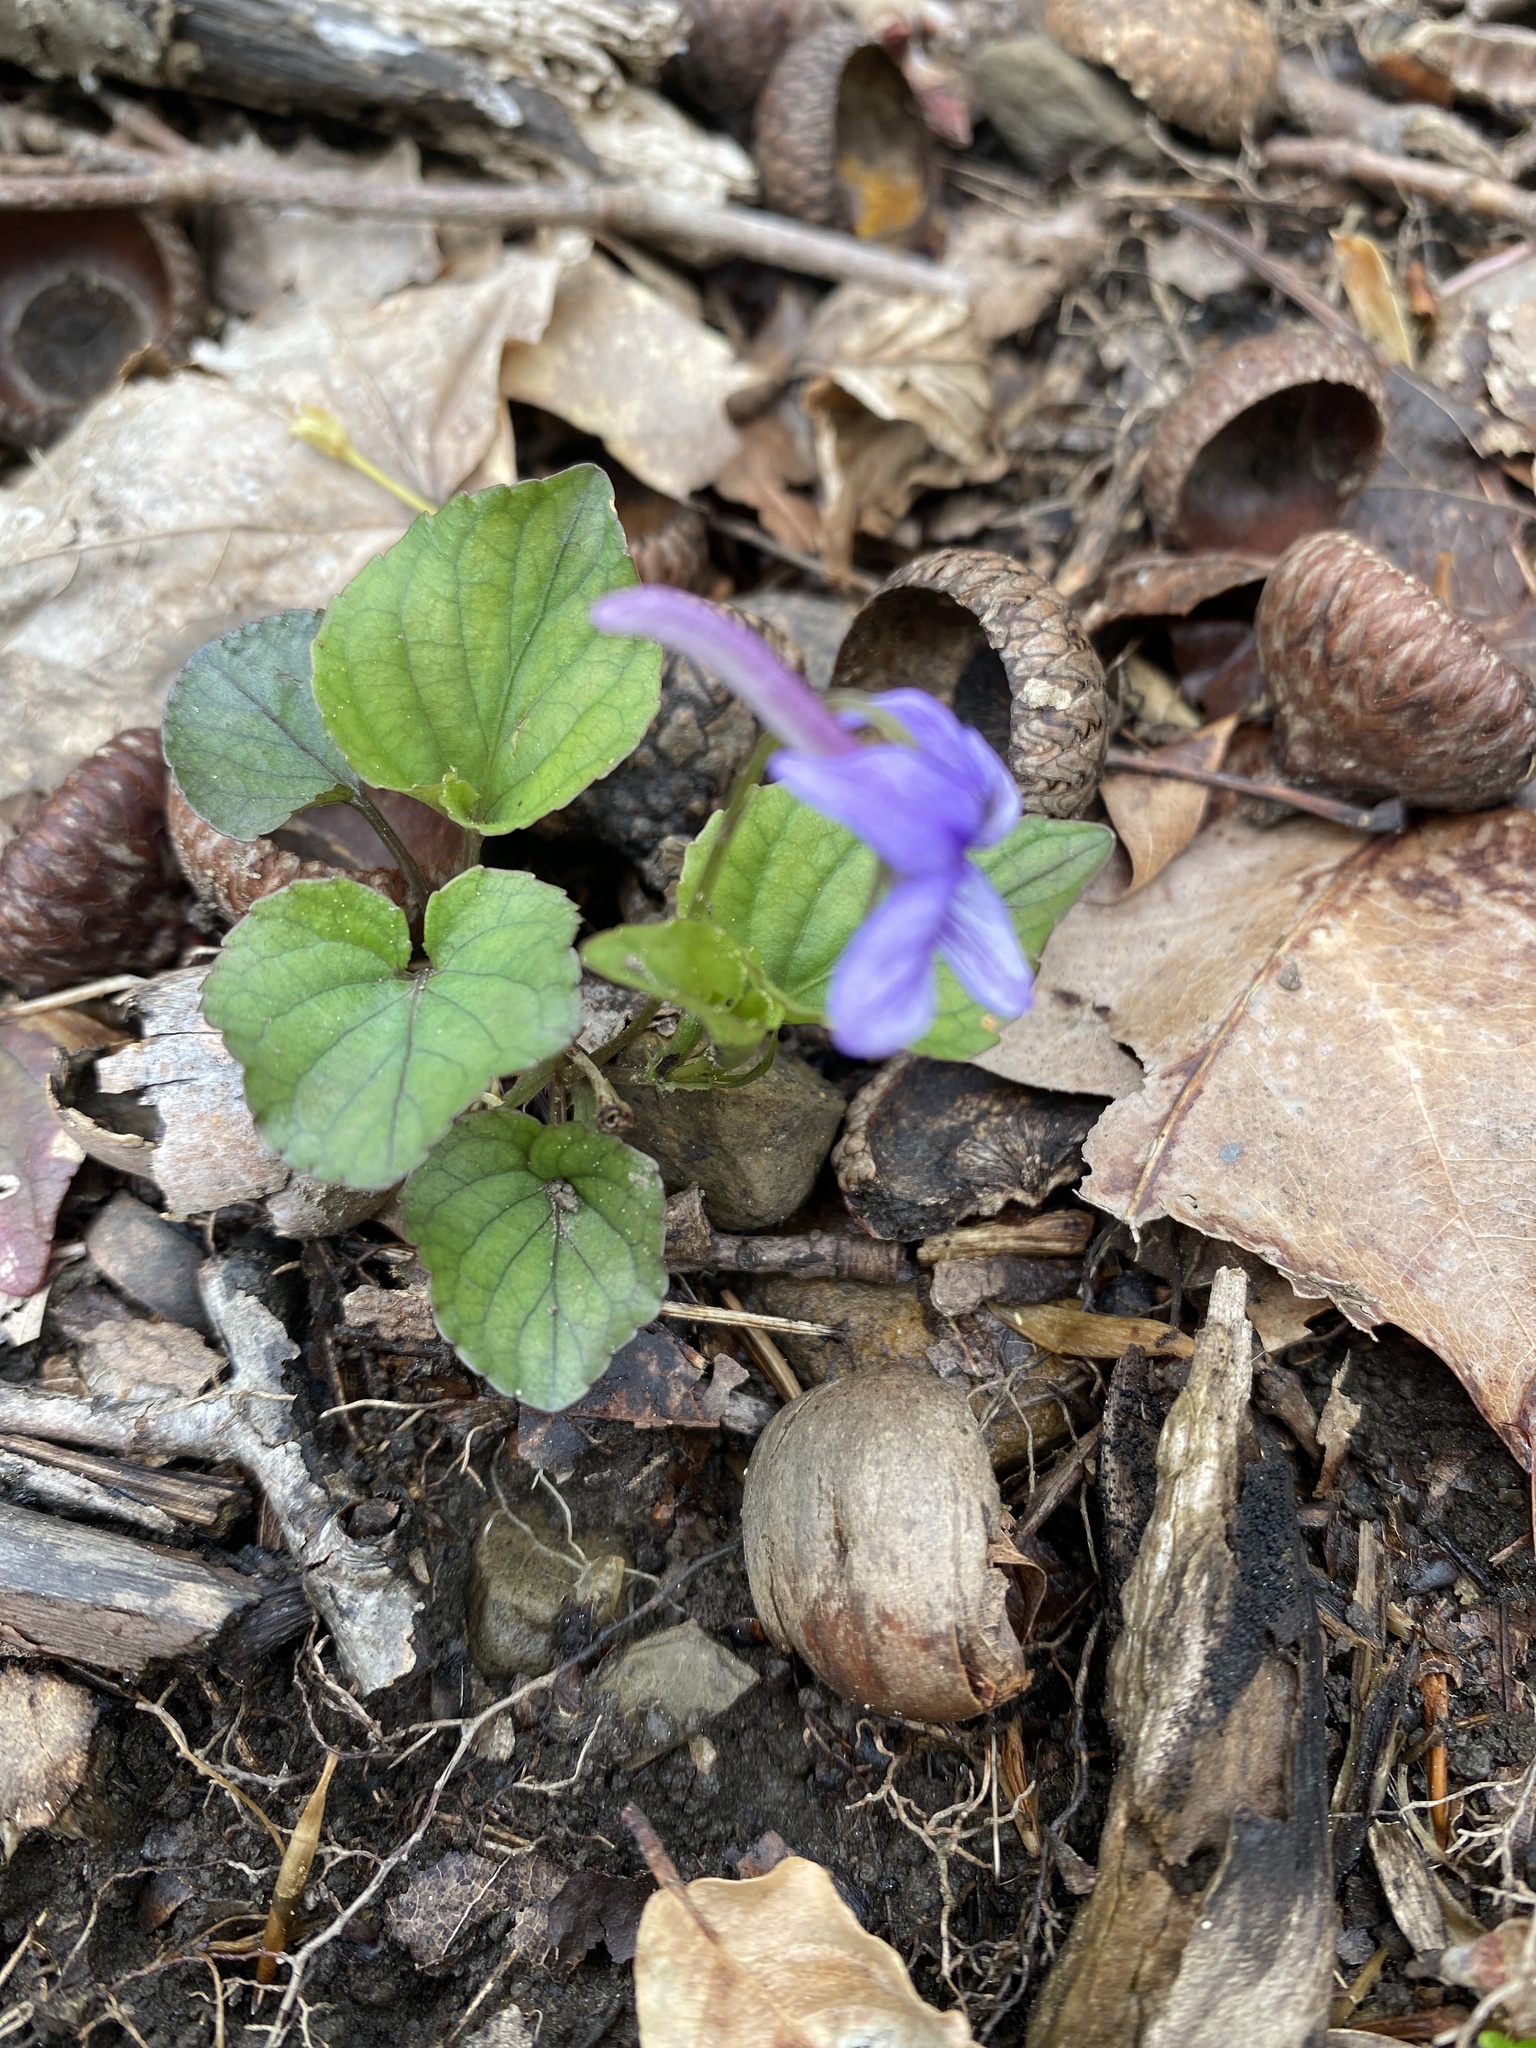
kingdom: Plantae
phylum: Tracheophyta
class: Magnoliopsida
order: Malpighiales
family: Violaceae
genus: Viola
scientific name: Viola rostrata
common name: Long-spur violet
